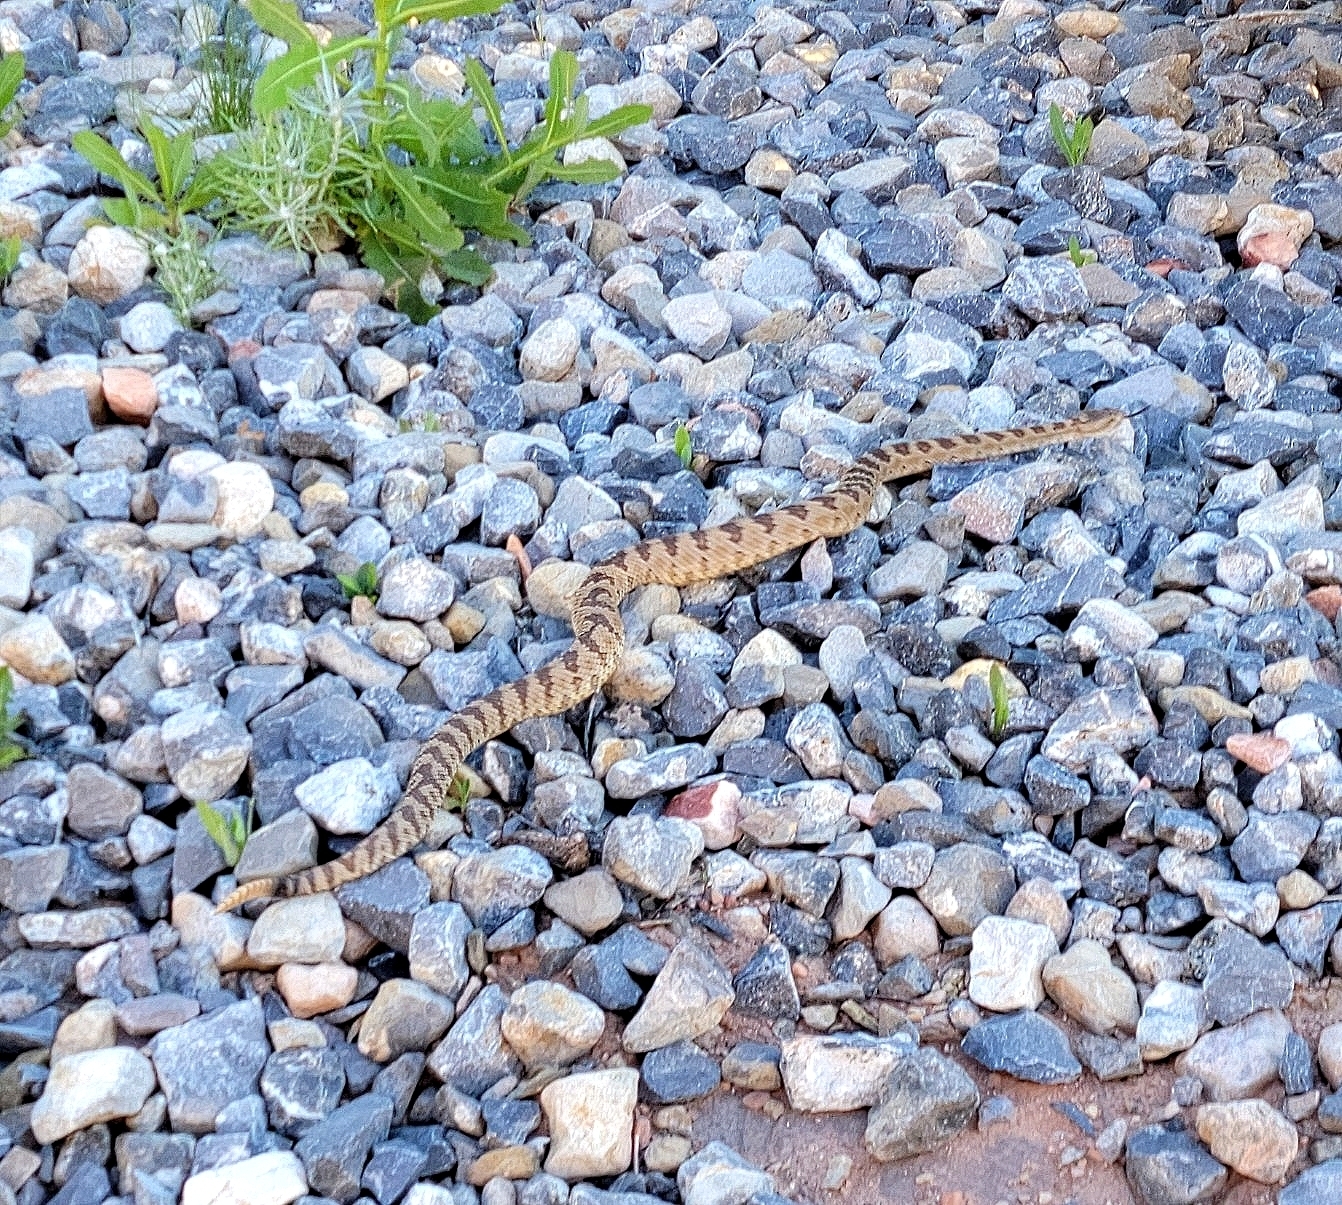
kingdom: Animalia
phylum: Chordata
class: Squamata
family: Viperidae
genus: Crotalus
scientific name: Crotalus oreganus
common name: Abyssus
